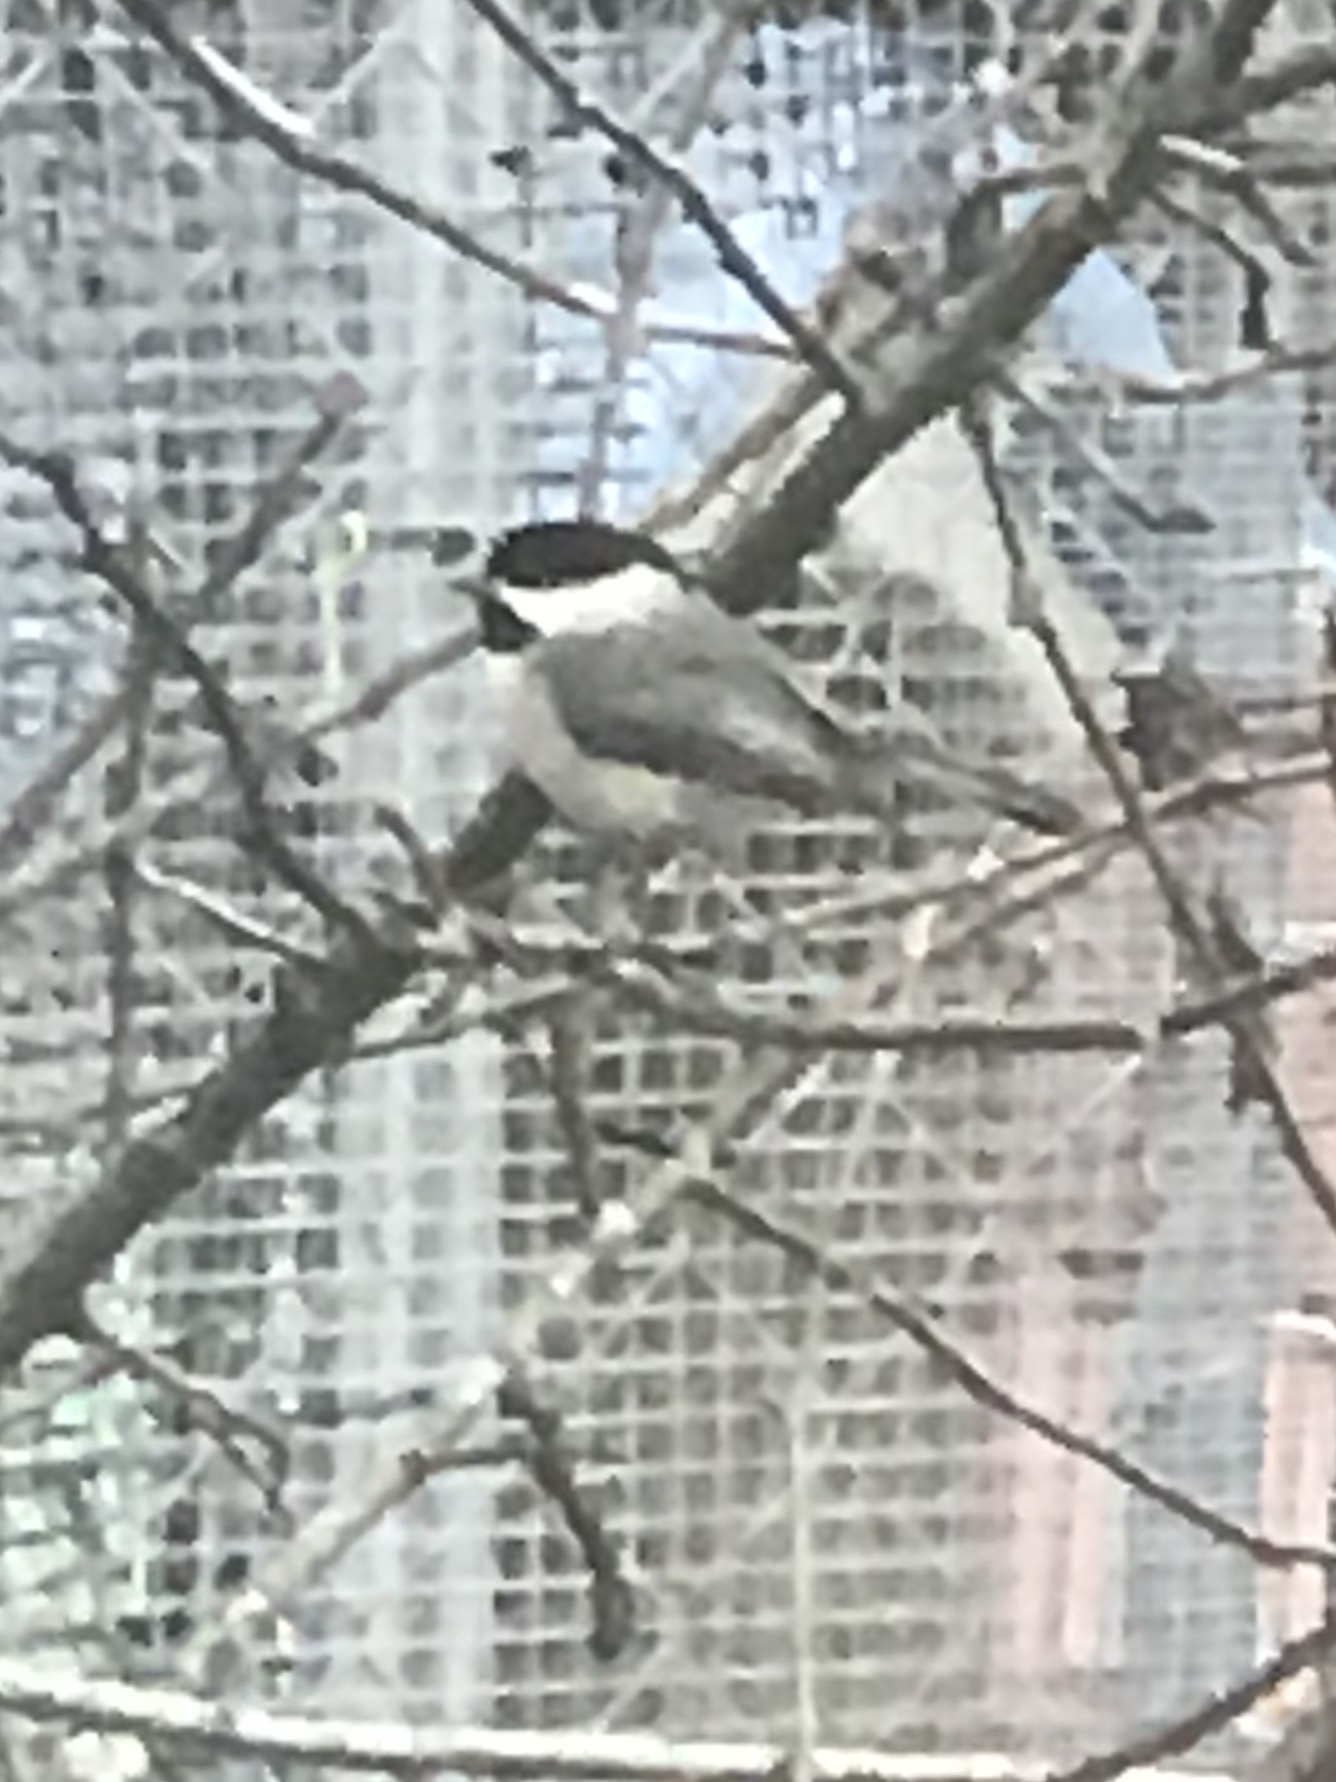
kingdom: Animalia
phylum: Chordata
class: Aves
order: Passeriformes
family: Paridae
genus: Poecile
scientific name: Poecile carolinensis
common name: Carolina chickadee
